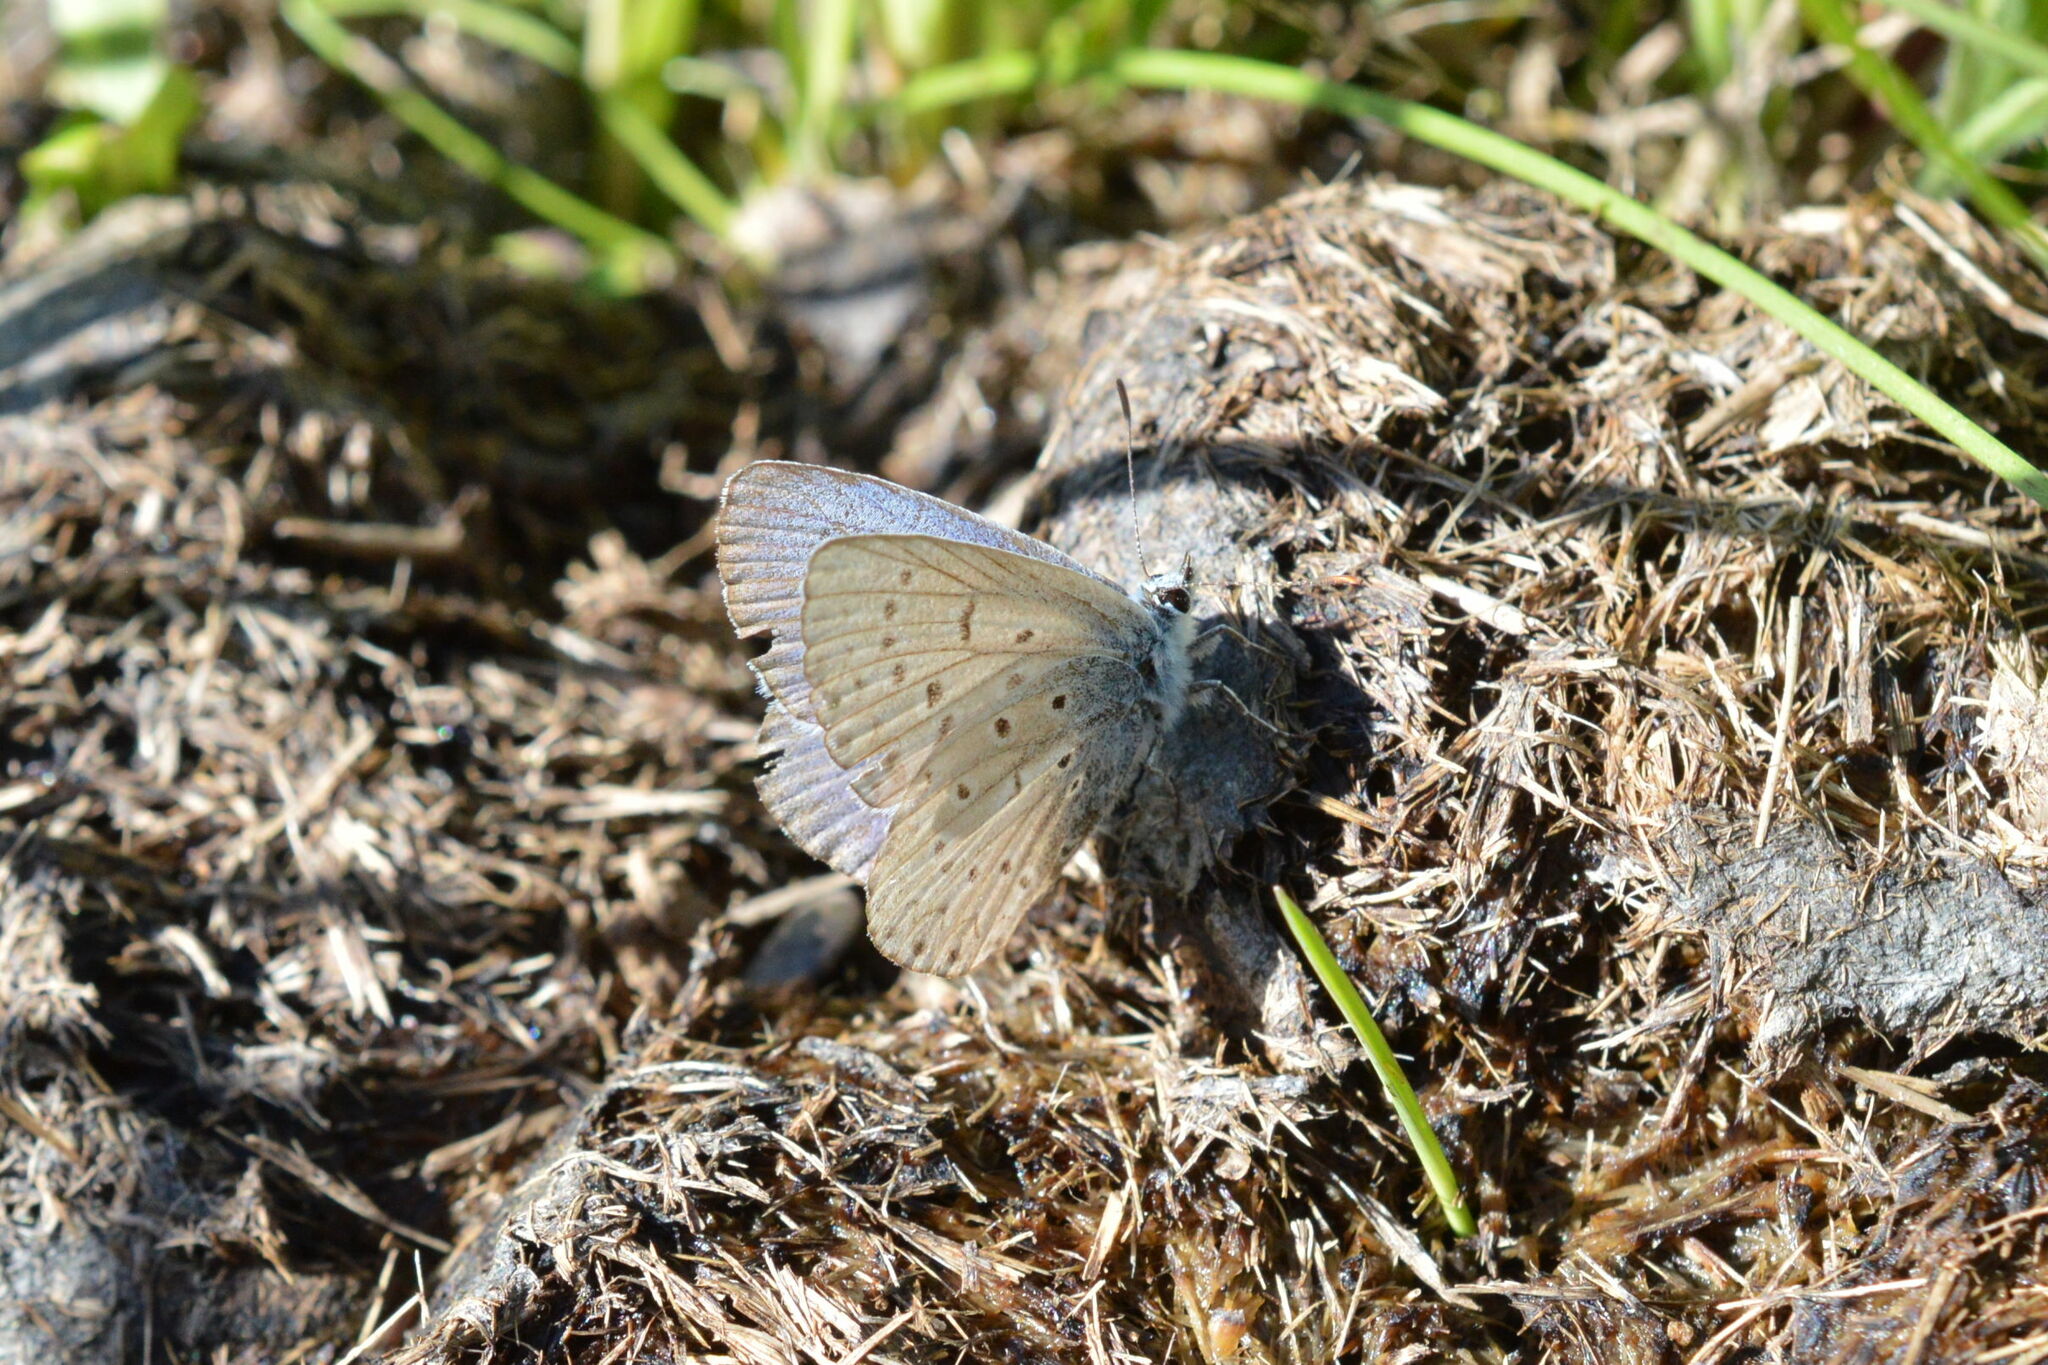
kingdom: Animalia
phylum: Arthropoda
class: Insecta
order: Lepidoptera
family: Lycaenidae
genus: Polyommatus
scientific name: Polyommatus icarus
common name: Common blue
